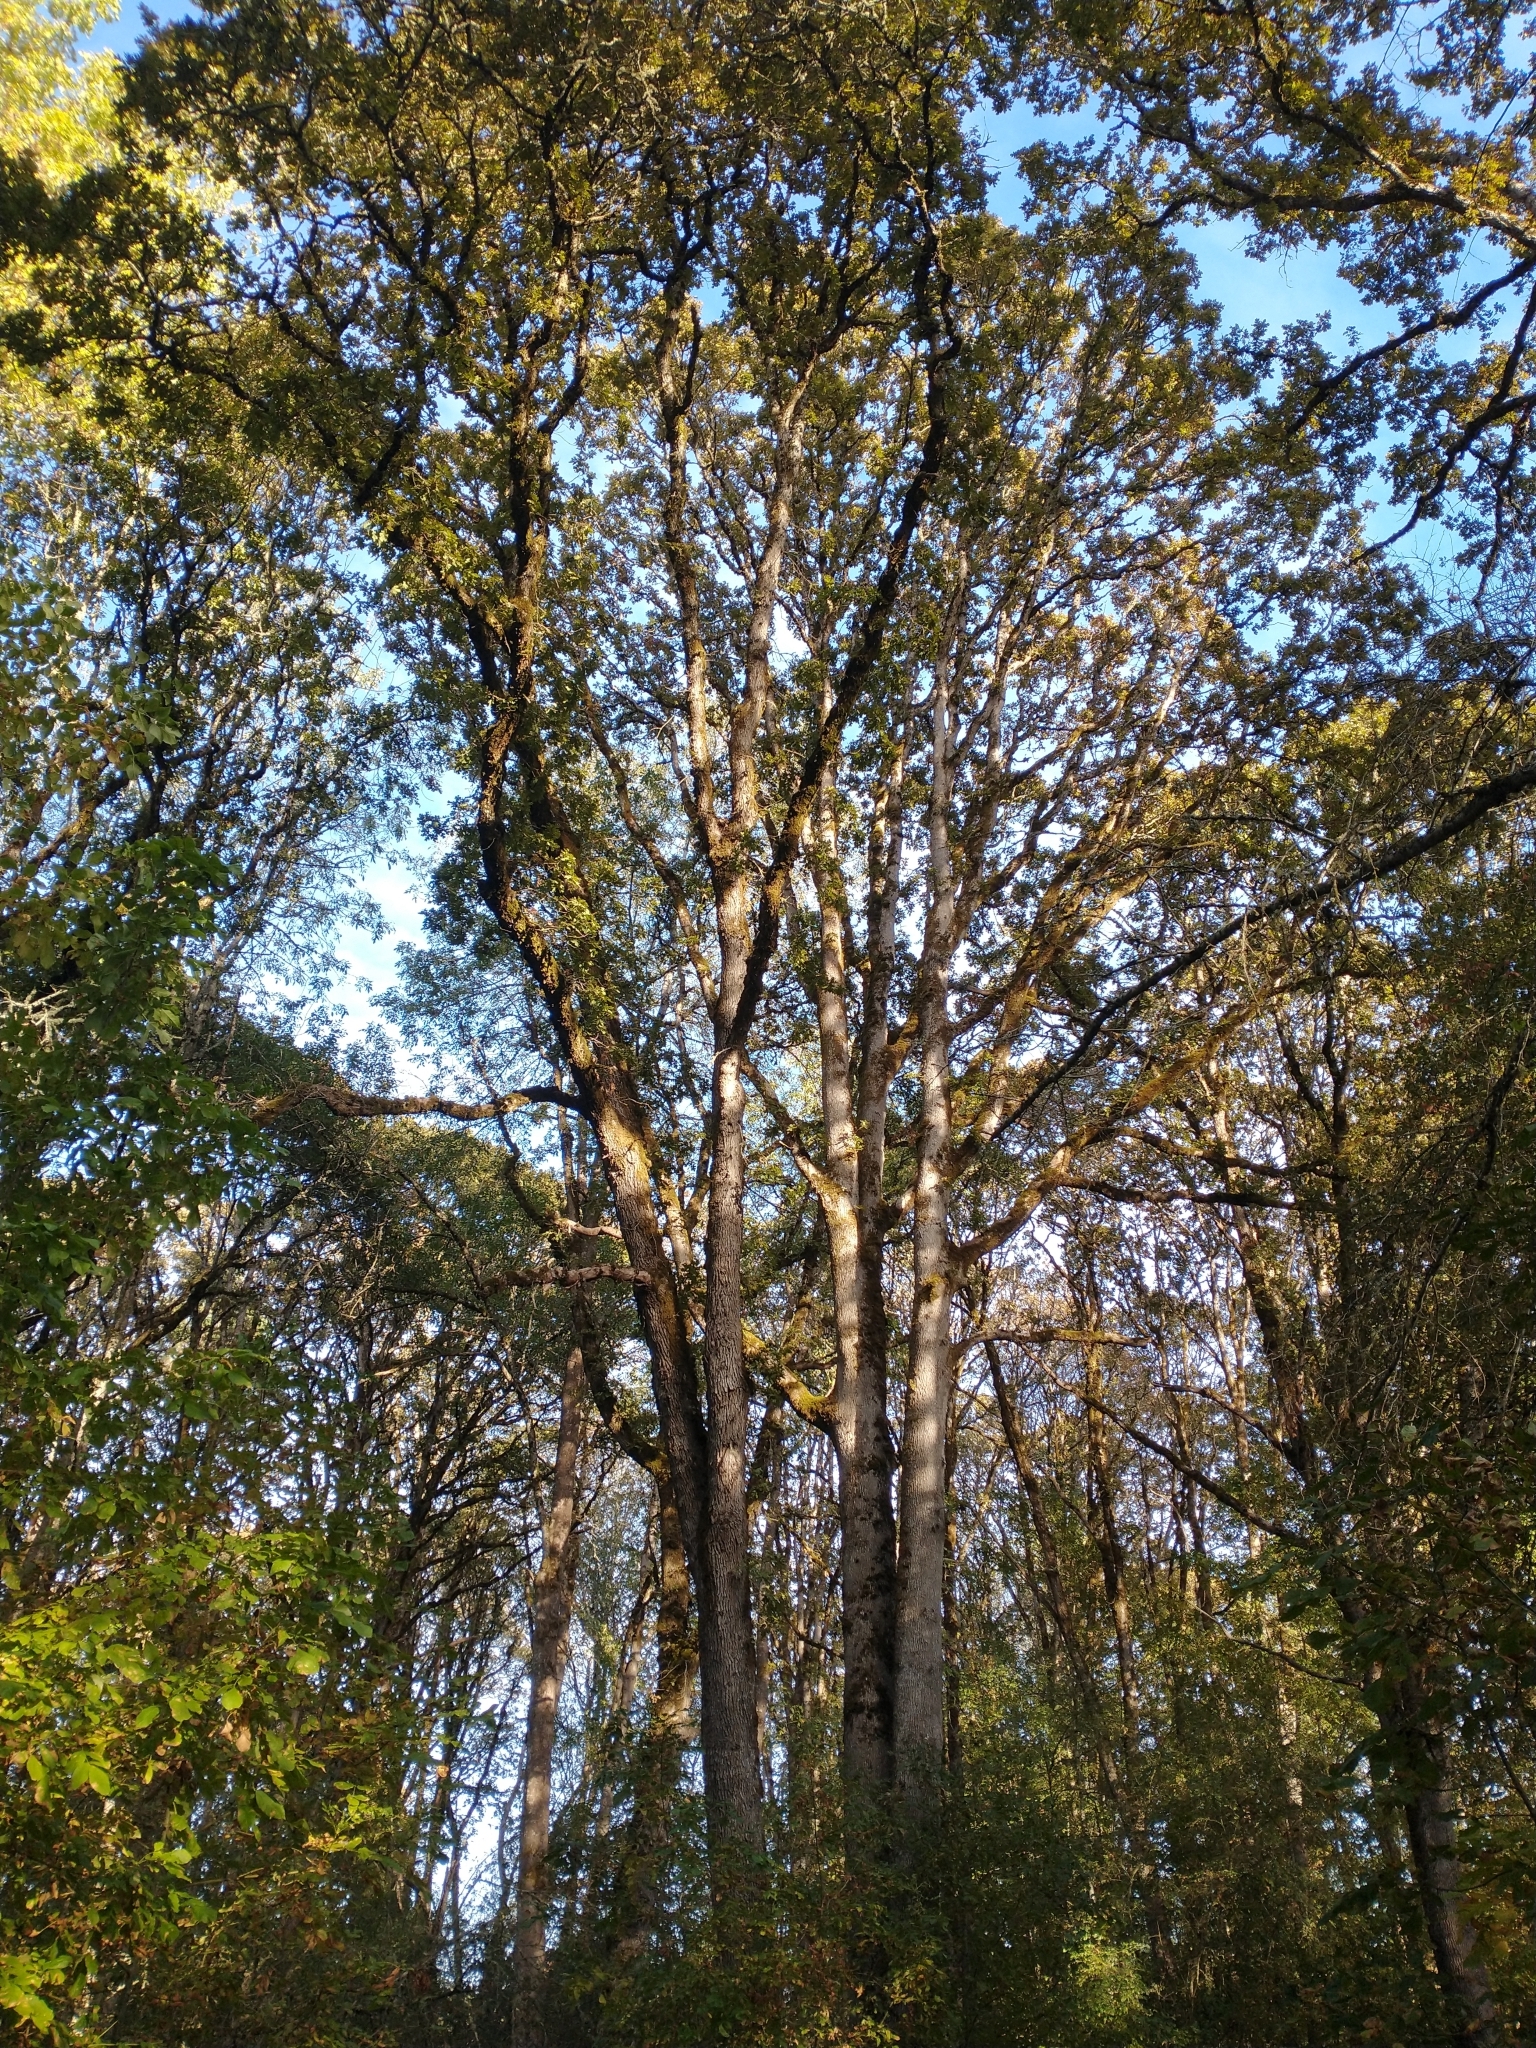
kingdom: Plantae
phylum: Tracheophyta
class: Magnoliopsida
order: Fagales
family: Fagaceae
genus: Quercus
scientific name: Quercus garryana
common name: Garry oak
